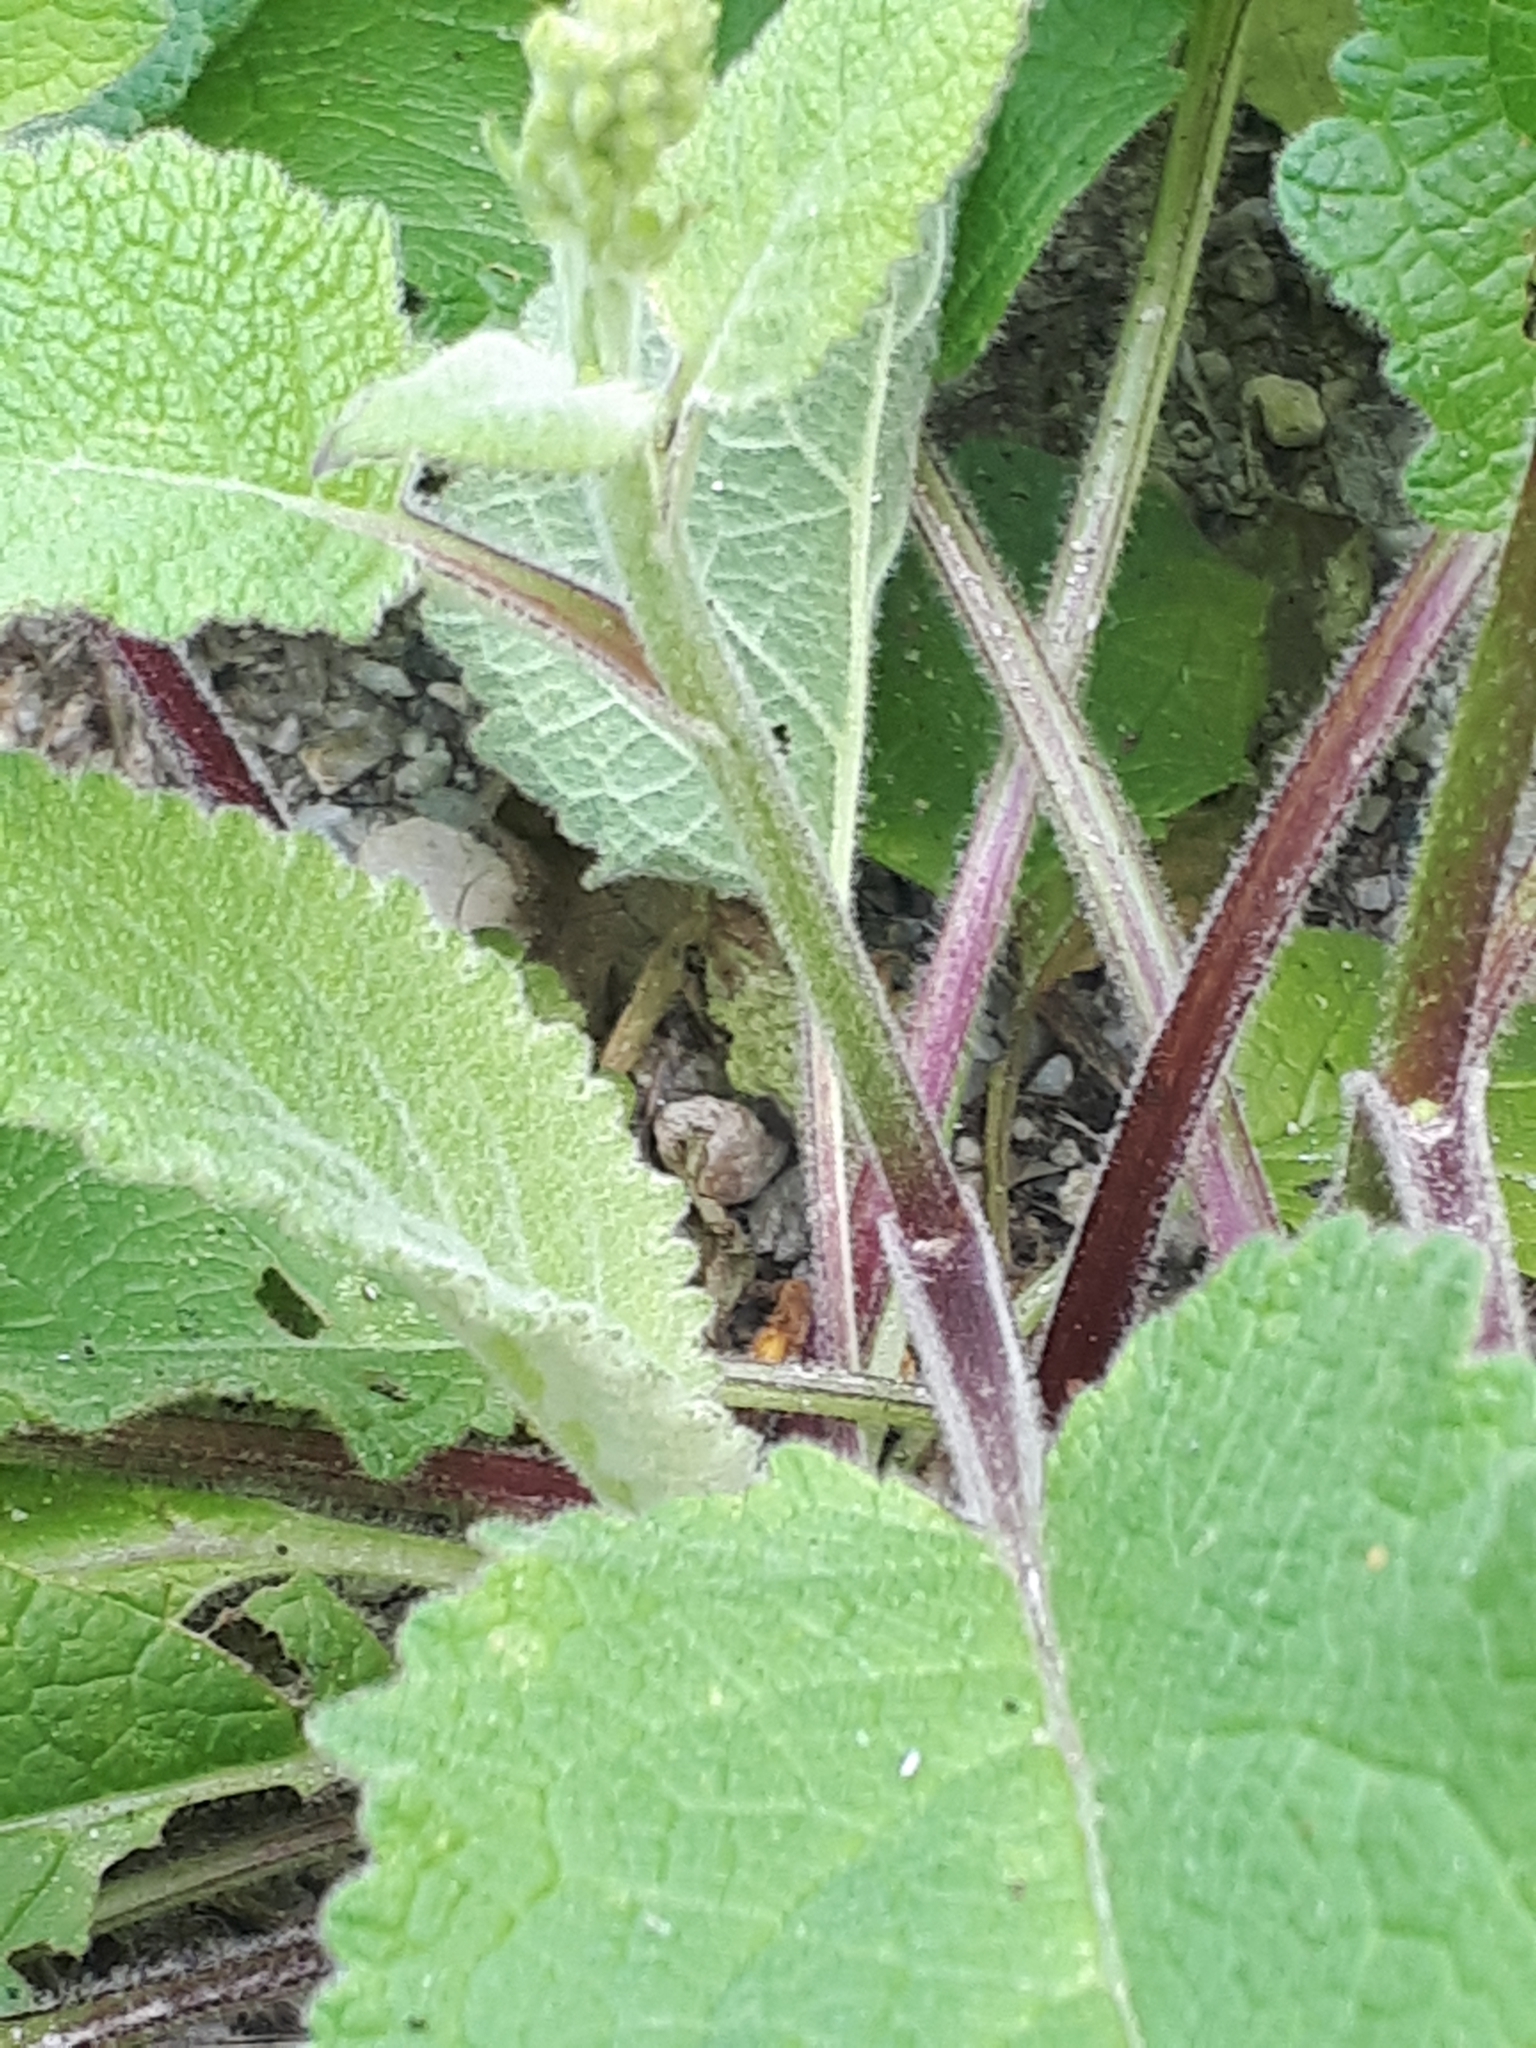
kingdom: Plantae
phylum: Tracheophyta
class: Magnoliopsida
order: Lamiales
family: Scrophulariaceae
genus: Verbascum
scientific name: Verbascum nigrum
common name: Dark mullein
